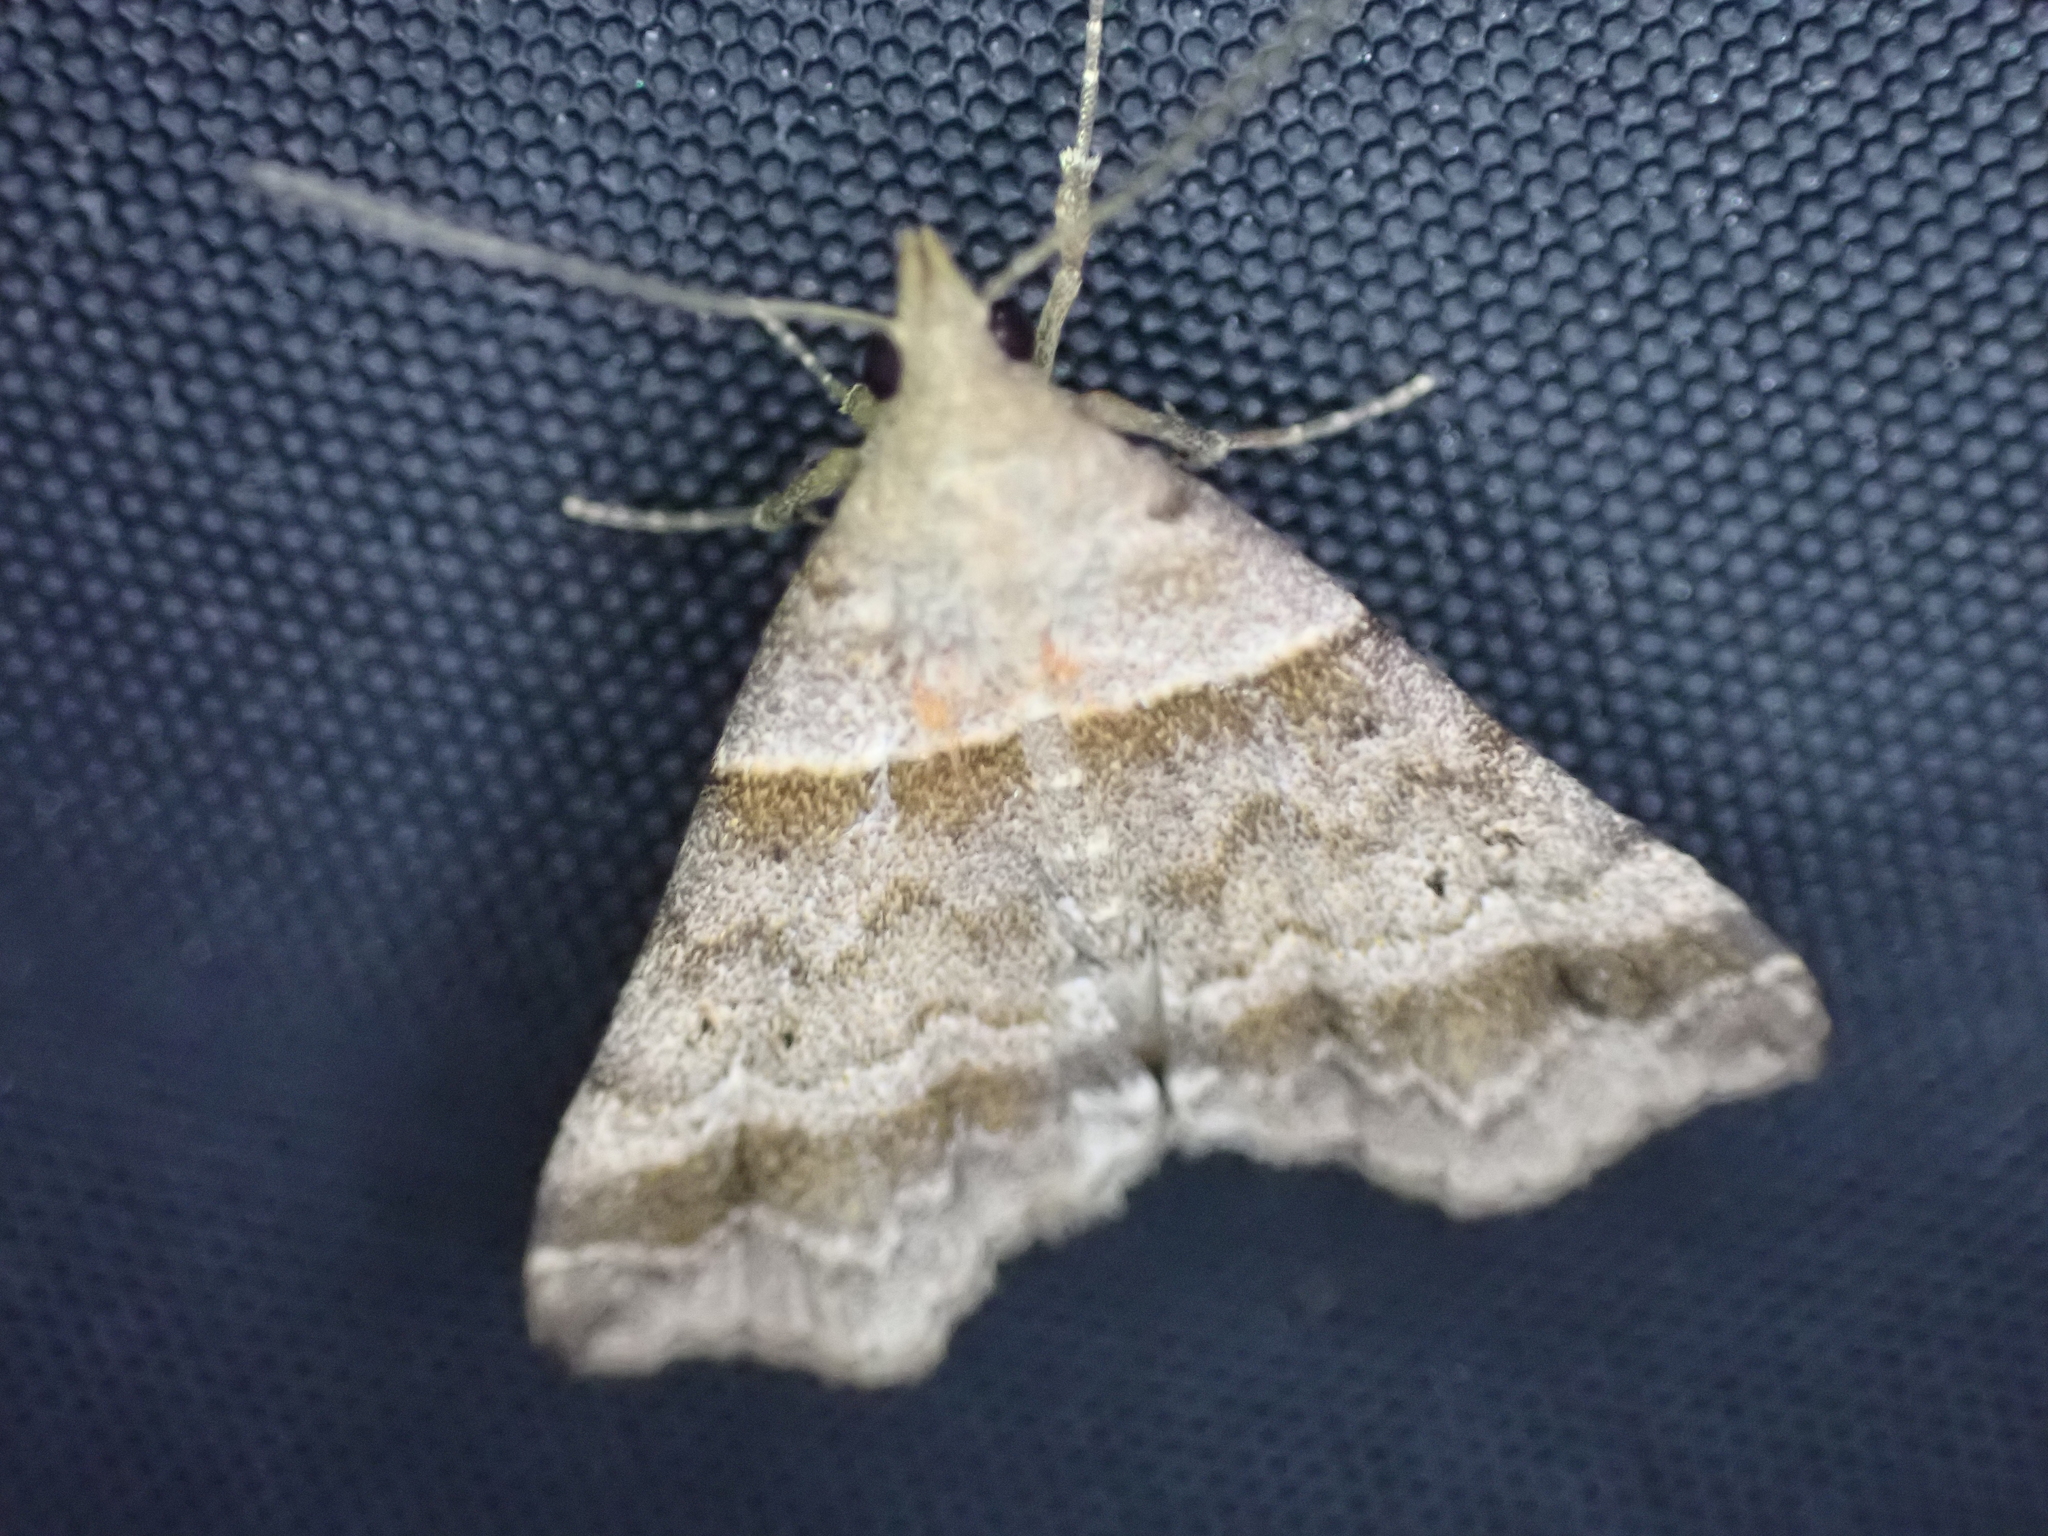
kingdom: Animalia
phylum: Arthropoda
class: Insecta
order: Lepidoptera
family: Erebidae
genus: Phaeolita
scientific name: Phaeolita pyramusalis
